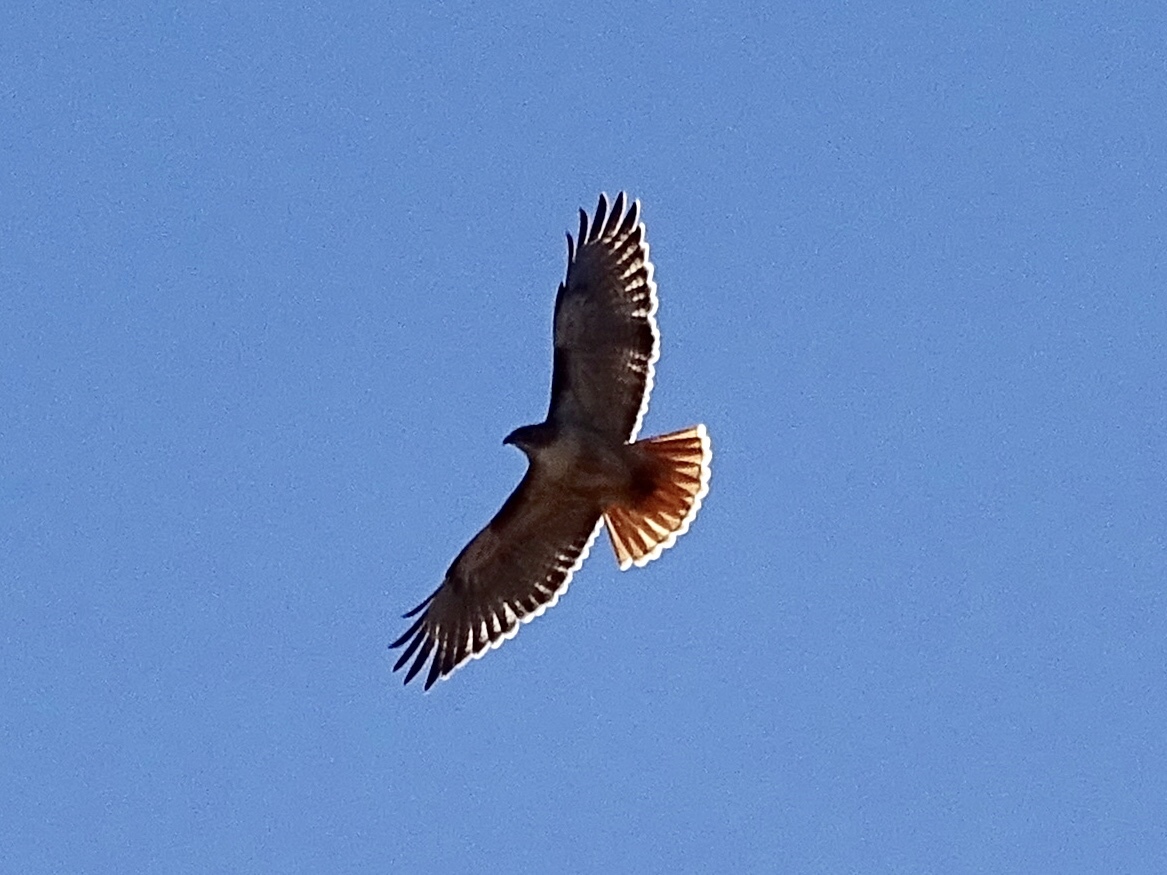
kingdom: Animalia
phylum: Chordata
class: Aves
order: Accipitriformes
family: Accipitridae
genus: Buteo
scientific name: Buteo jamaicensis
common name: Red-tailed hawk
